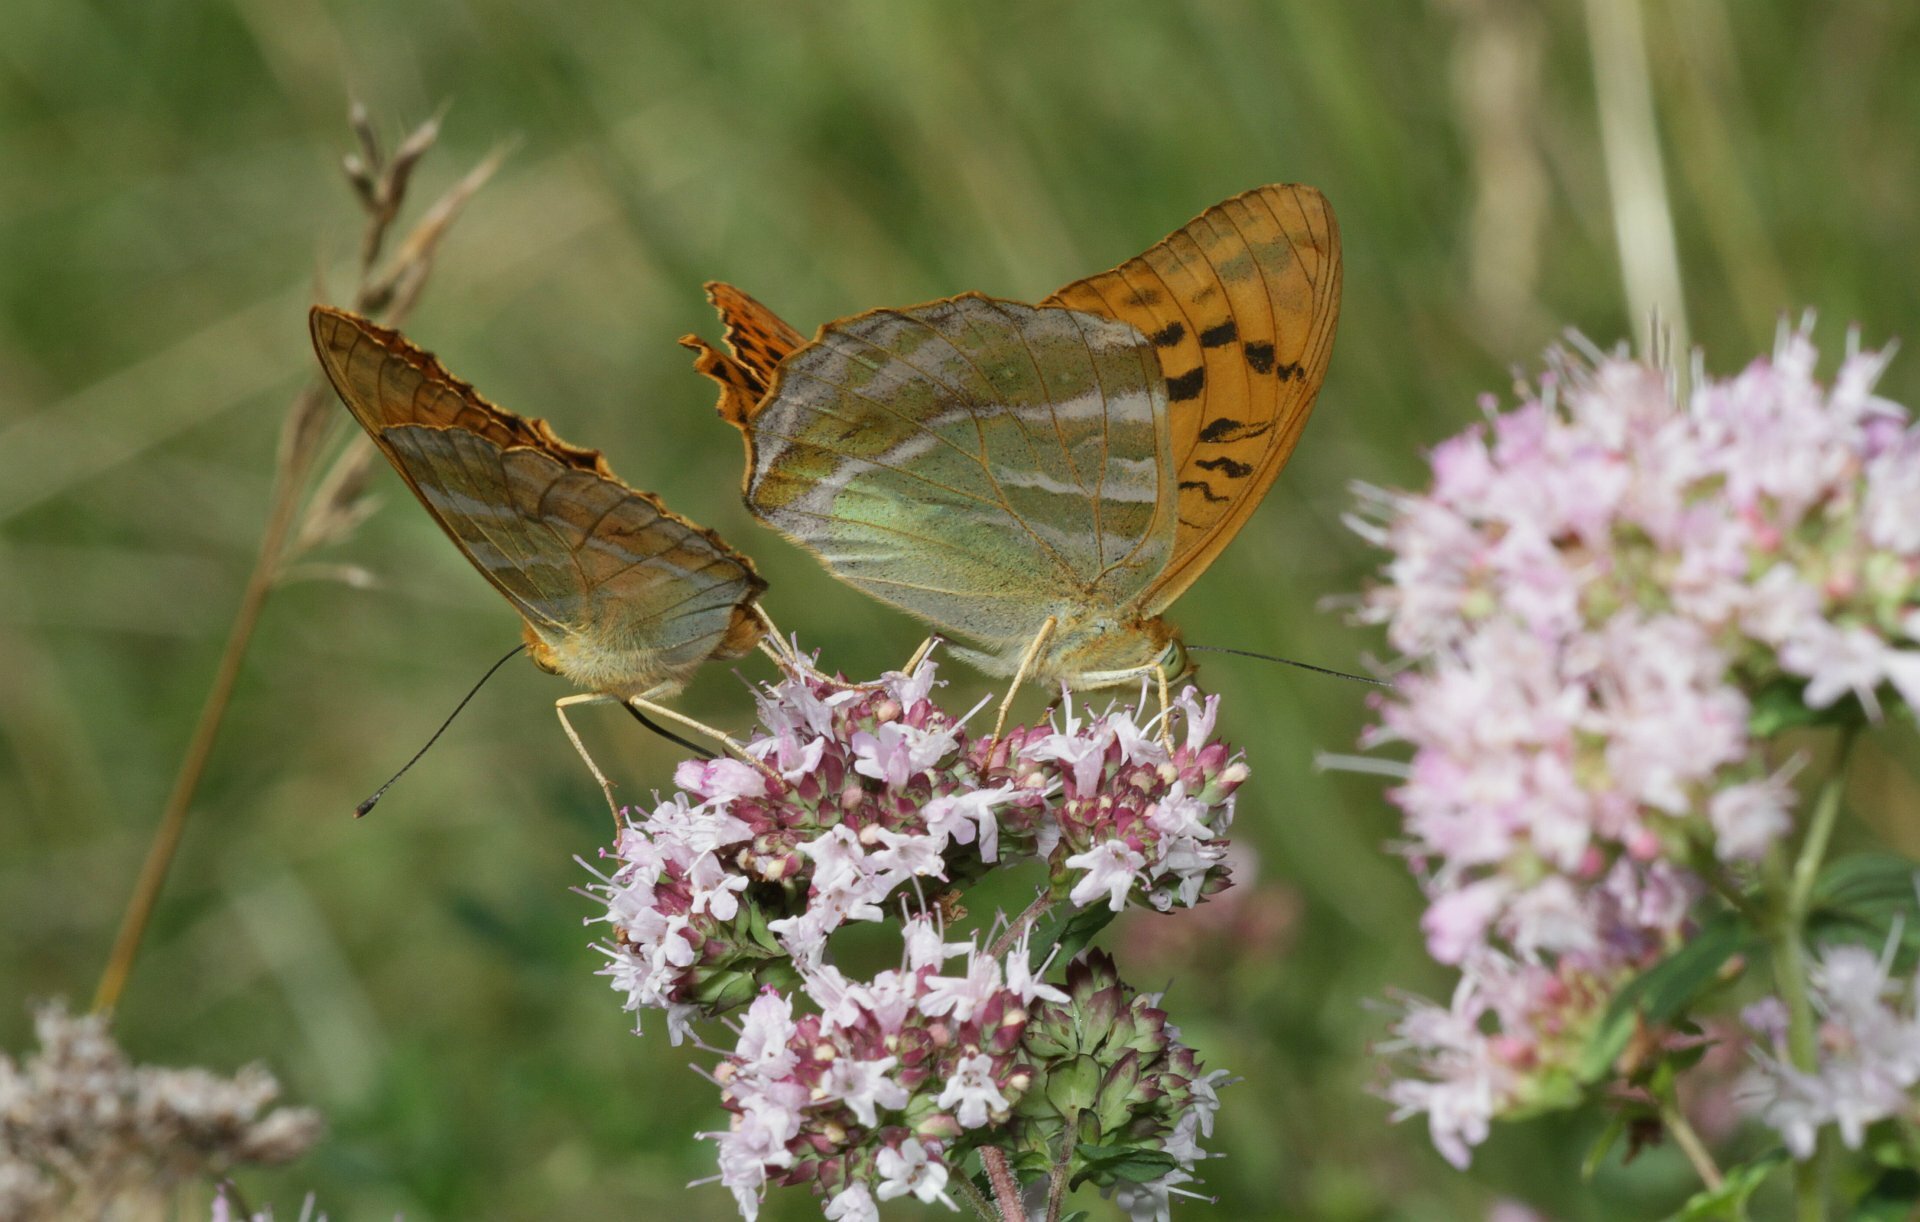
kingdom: Animalia
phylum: Arthropoda
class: Insecta
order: Lepidoptera
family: Nymphalidae
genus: Argynnis
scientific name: Argynnis paphia
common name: Silver-washed fritillary
